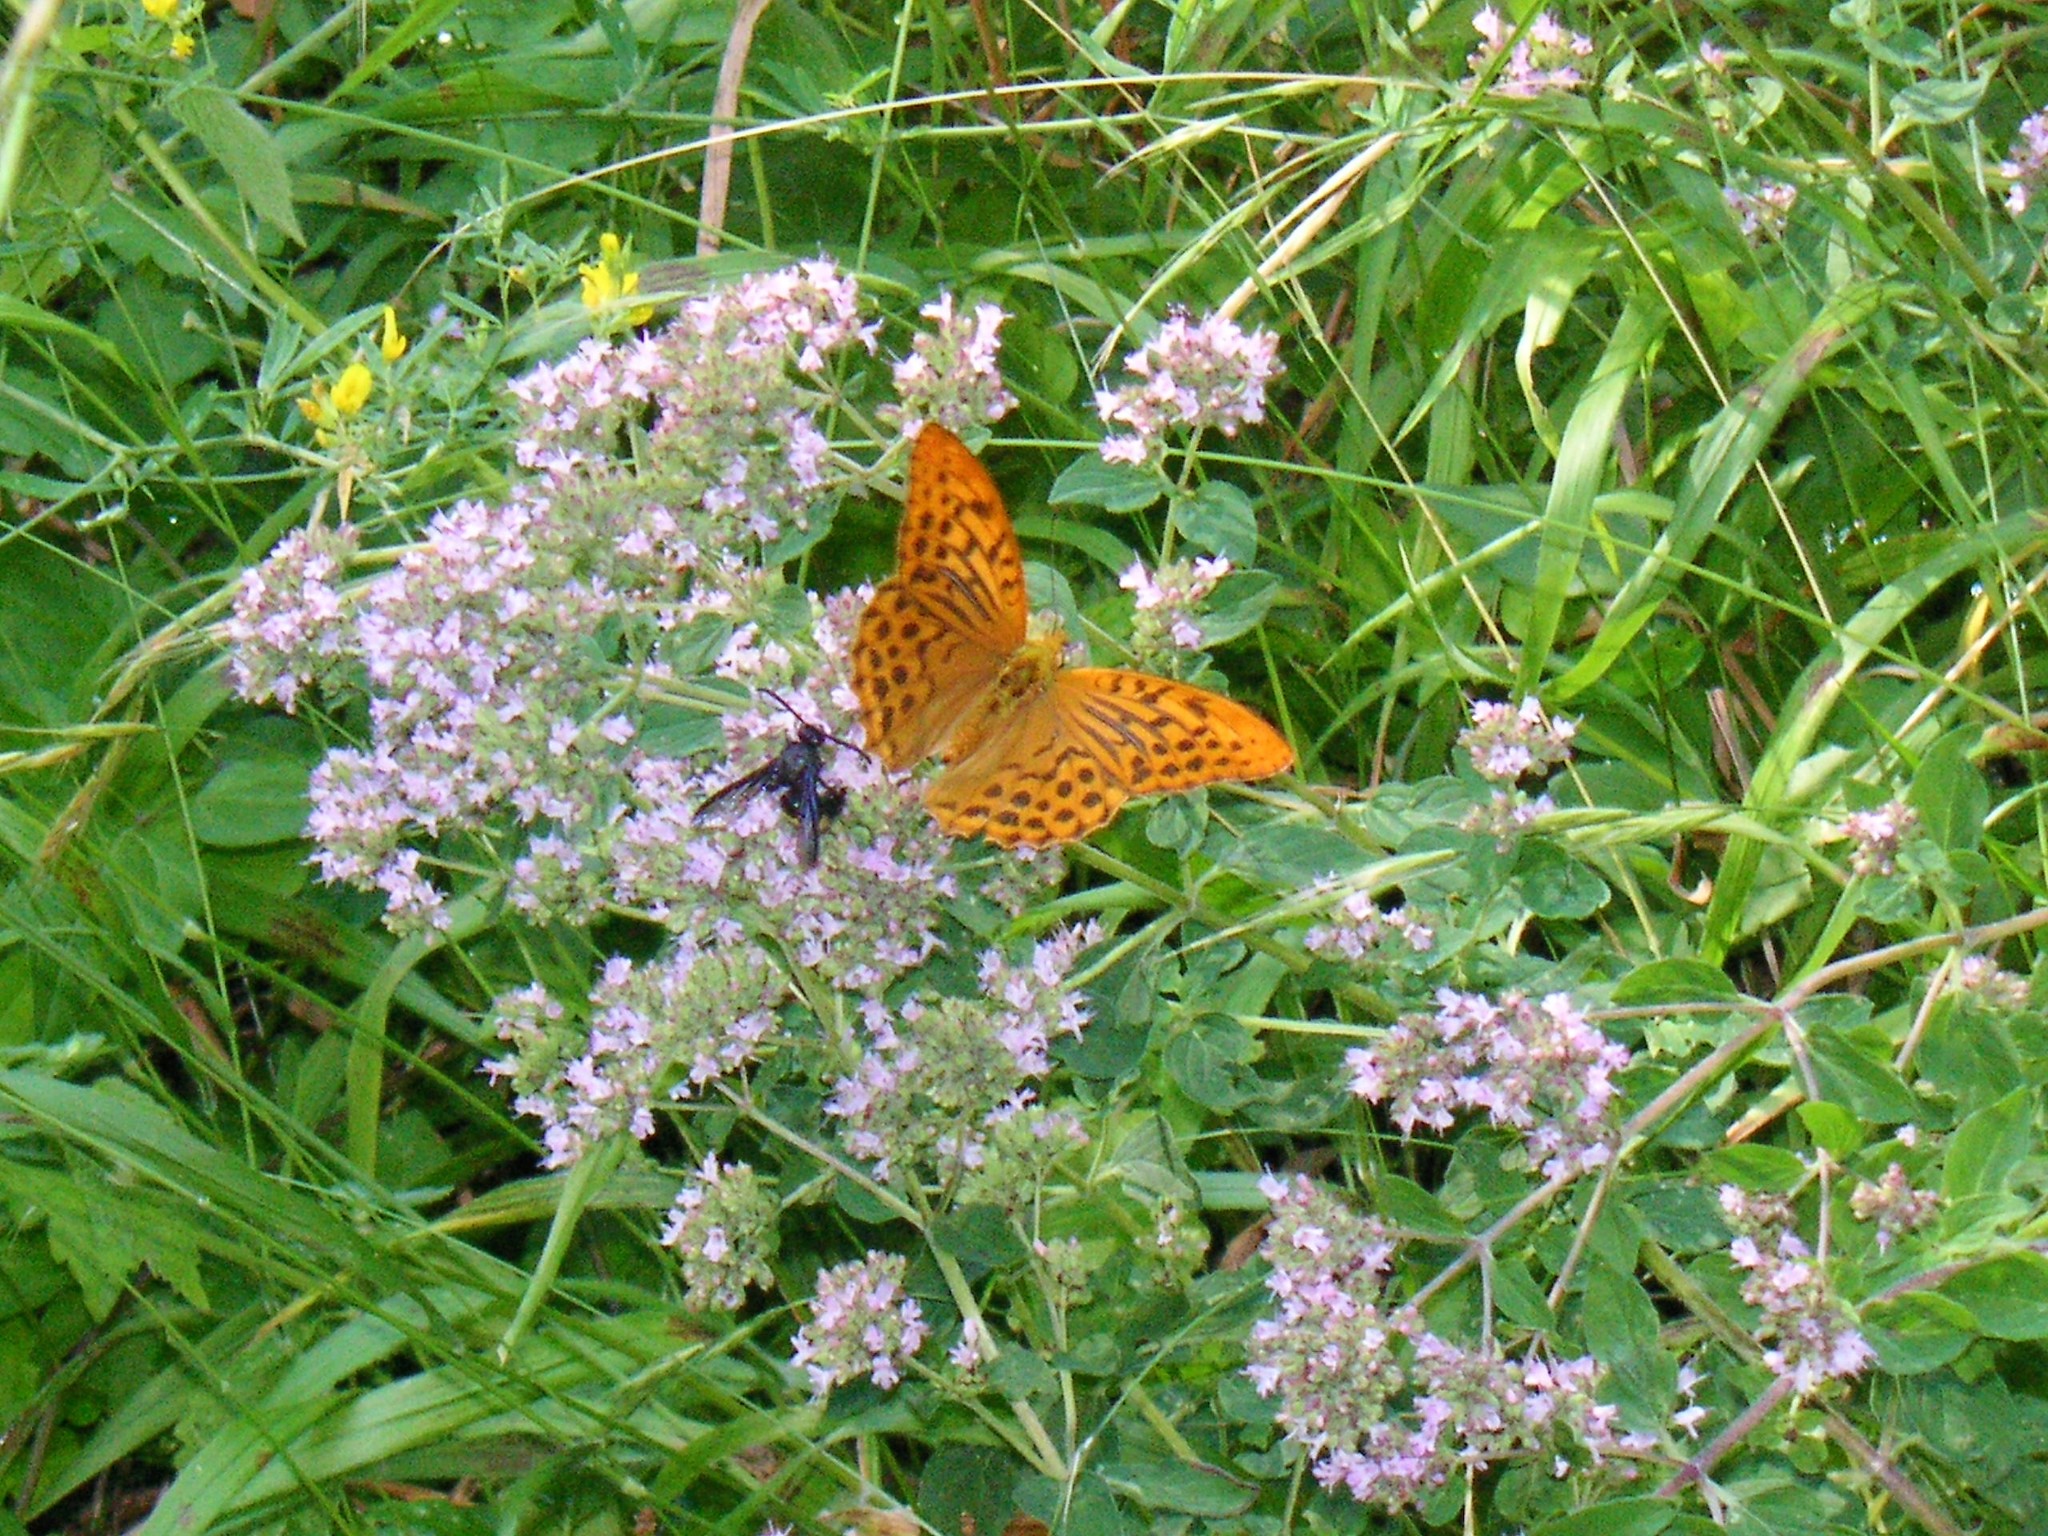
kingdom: Animalia
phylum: Arthropoda
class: Insecta
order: Lepidoptera
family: Nymphalidae
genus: Argynnis
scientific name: Argynnis paphia
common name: Silver-washed fritillary
